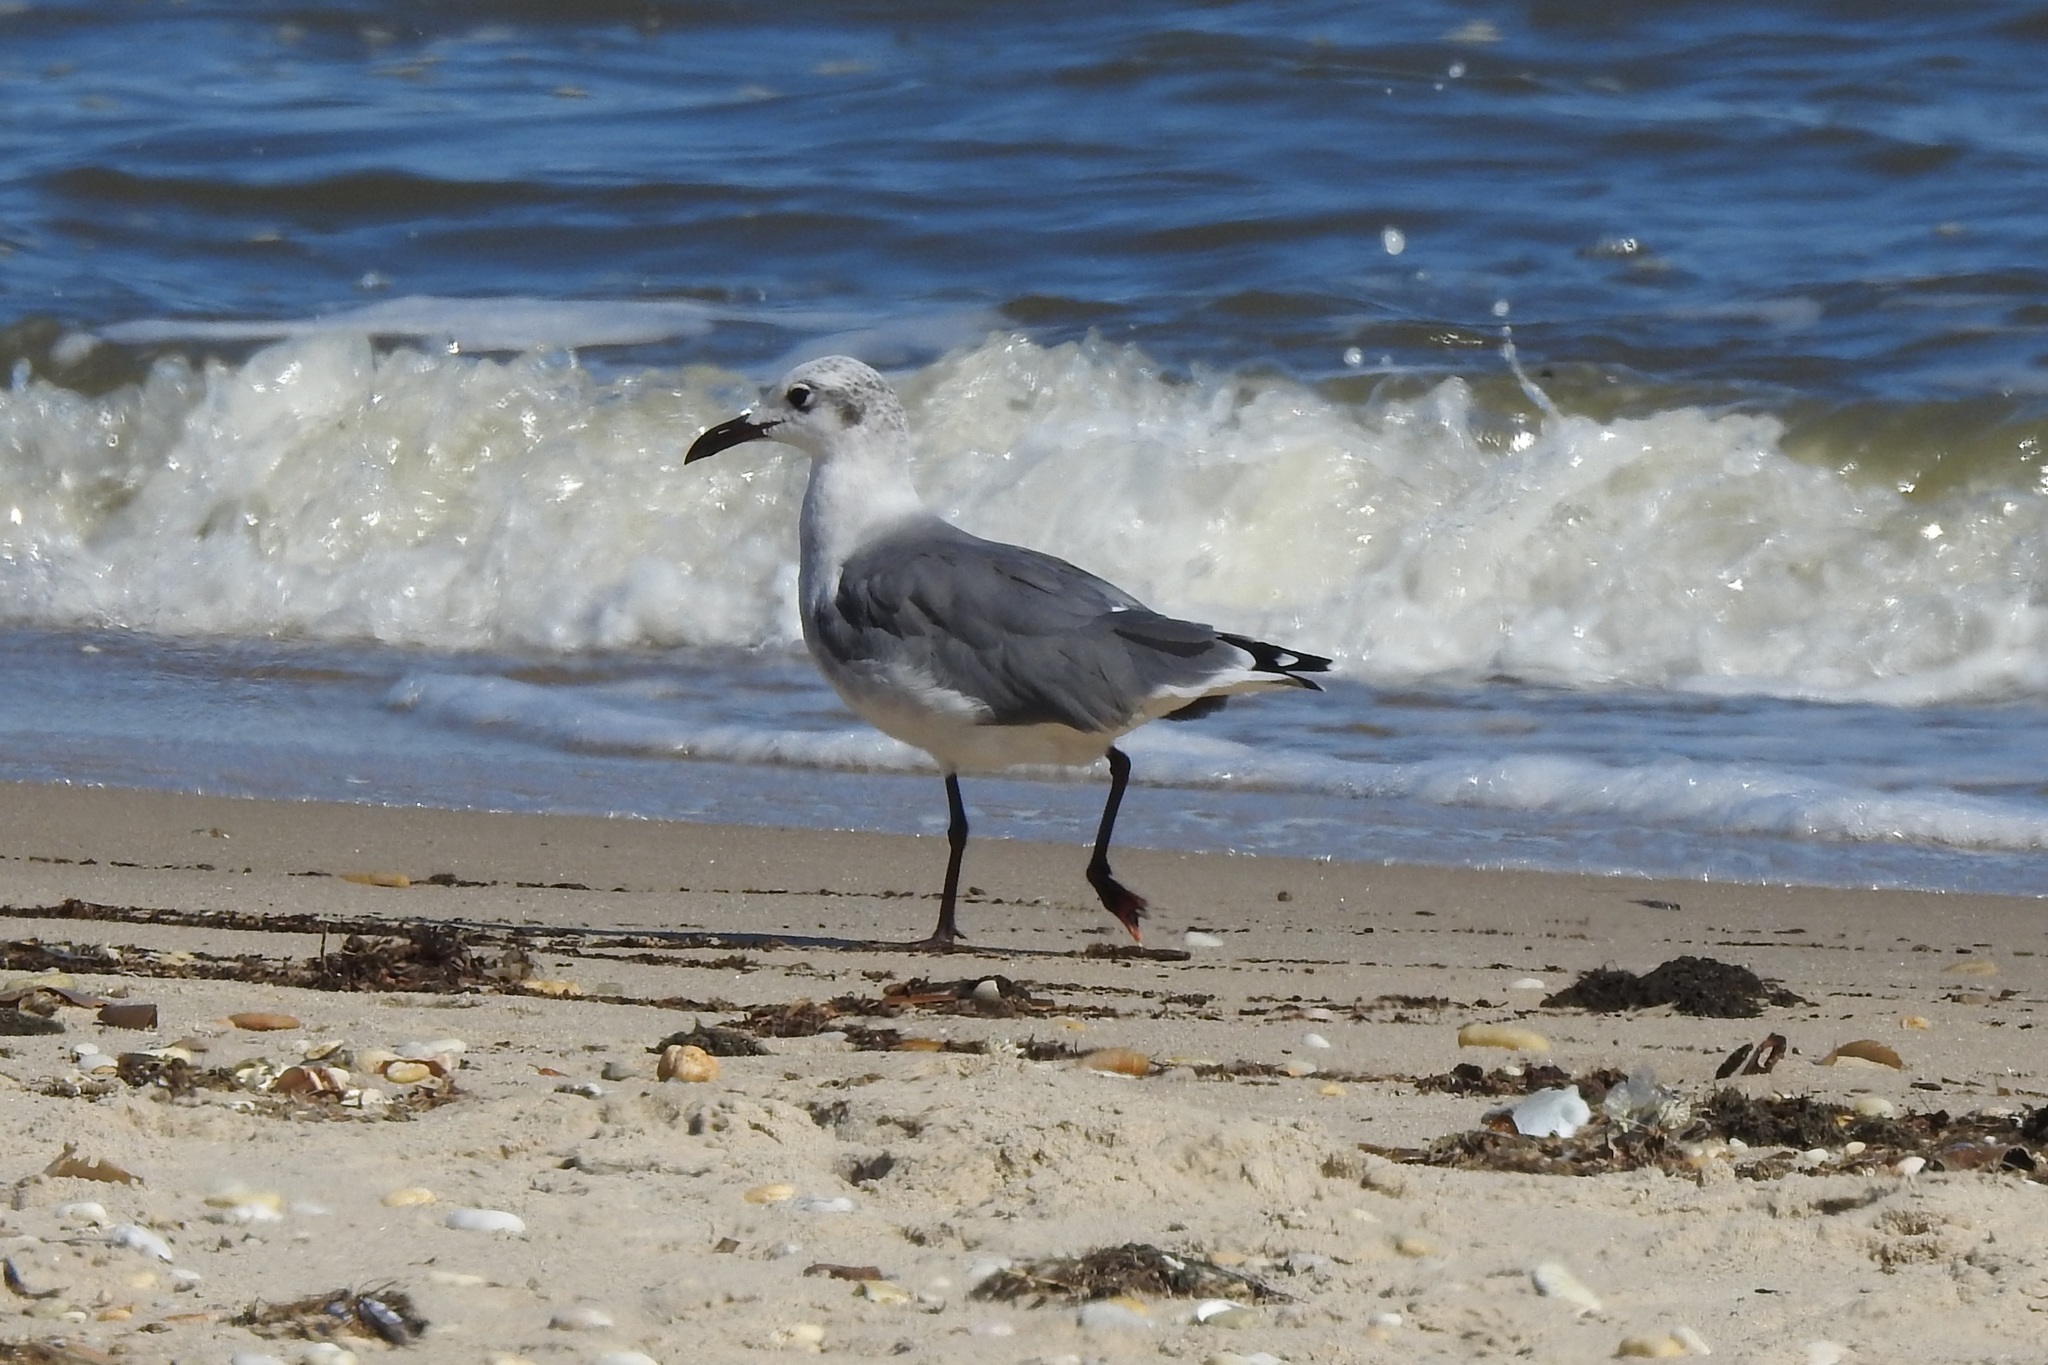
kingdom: Animalia
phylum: Chordata
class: Aves
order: Charadriiformes
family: Laridae
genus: Leucophaeus
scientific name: Leucophaeus atricilla
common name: Laughing gull
